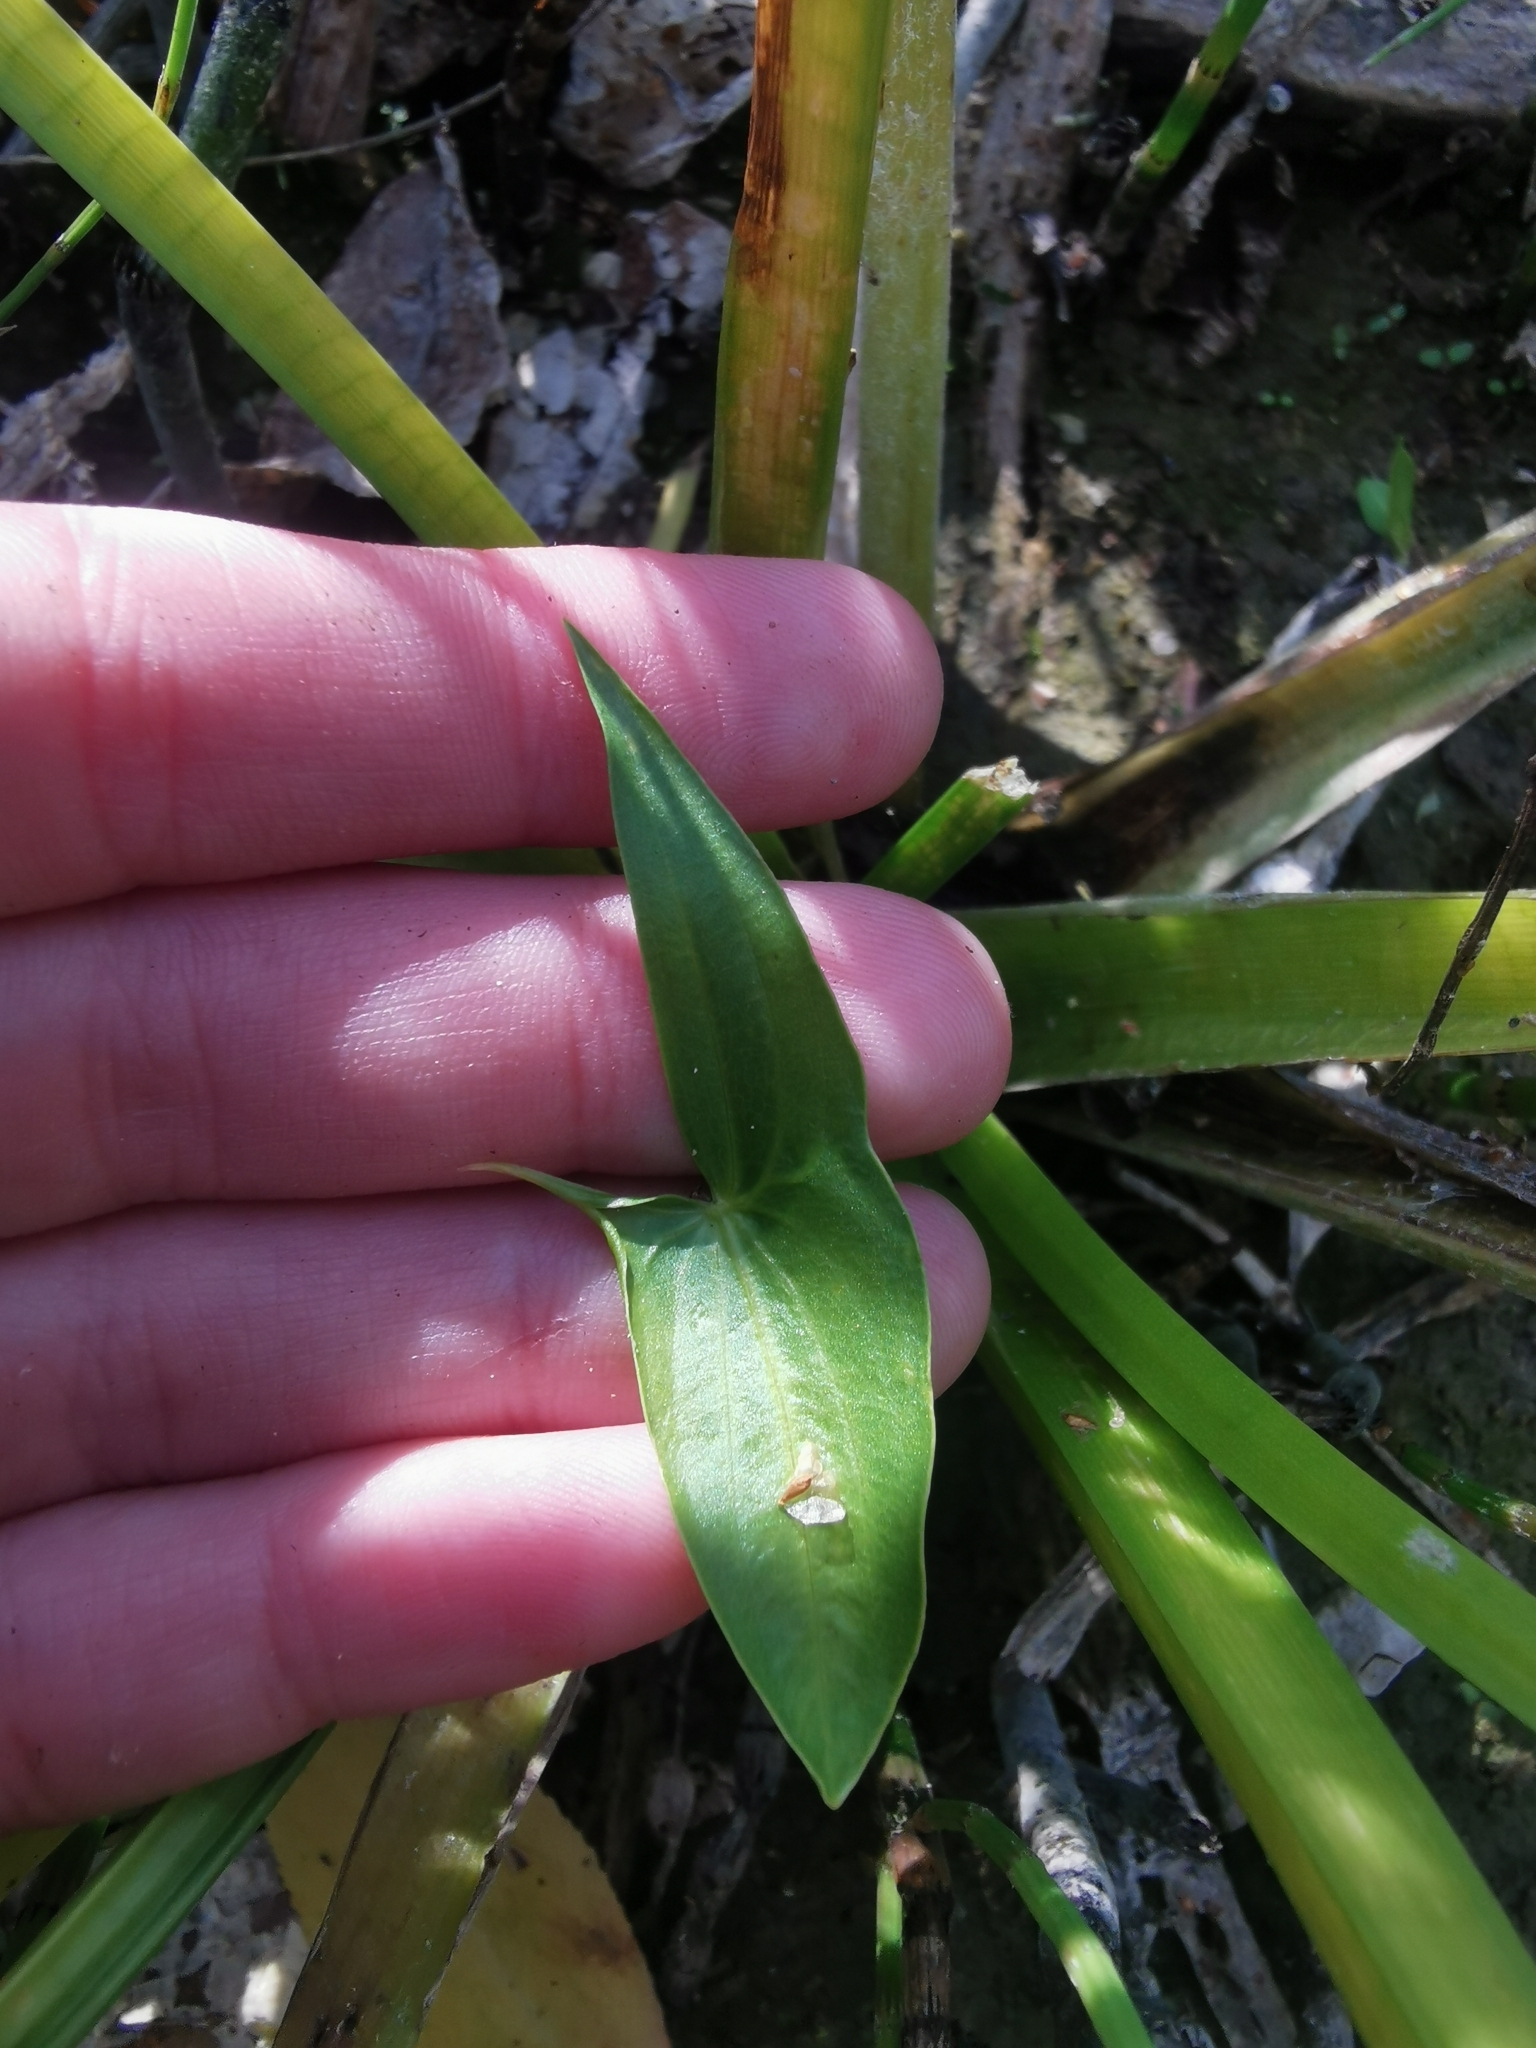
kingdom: Plantae
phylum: Tracheophyta
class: Liliopsida
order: Alismatales
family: Alismataceae
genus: Sagittaria
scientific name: Sagittaria sagittifolia
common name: Arrowhead
